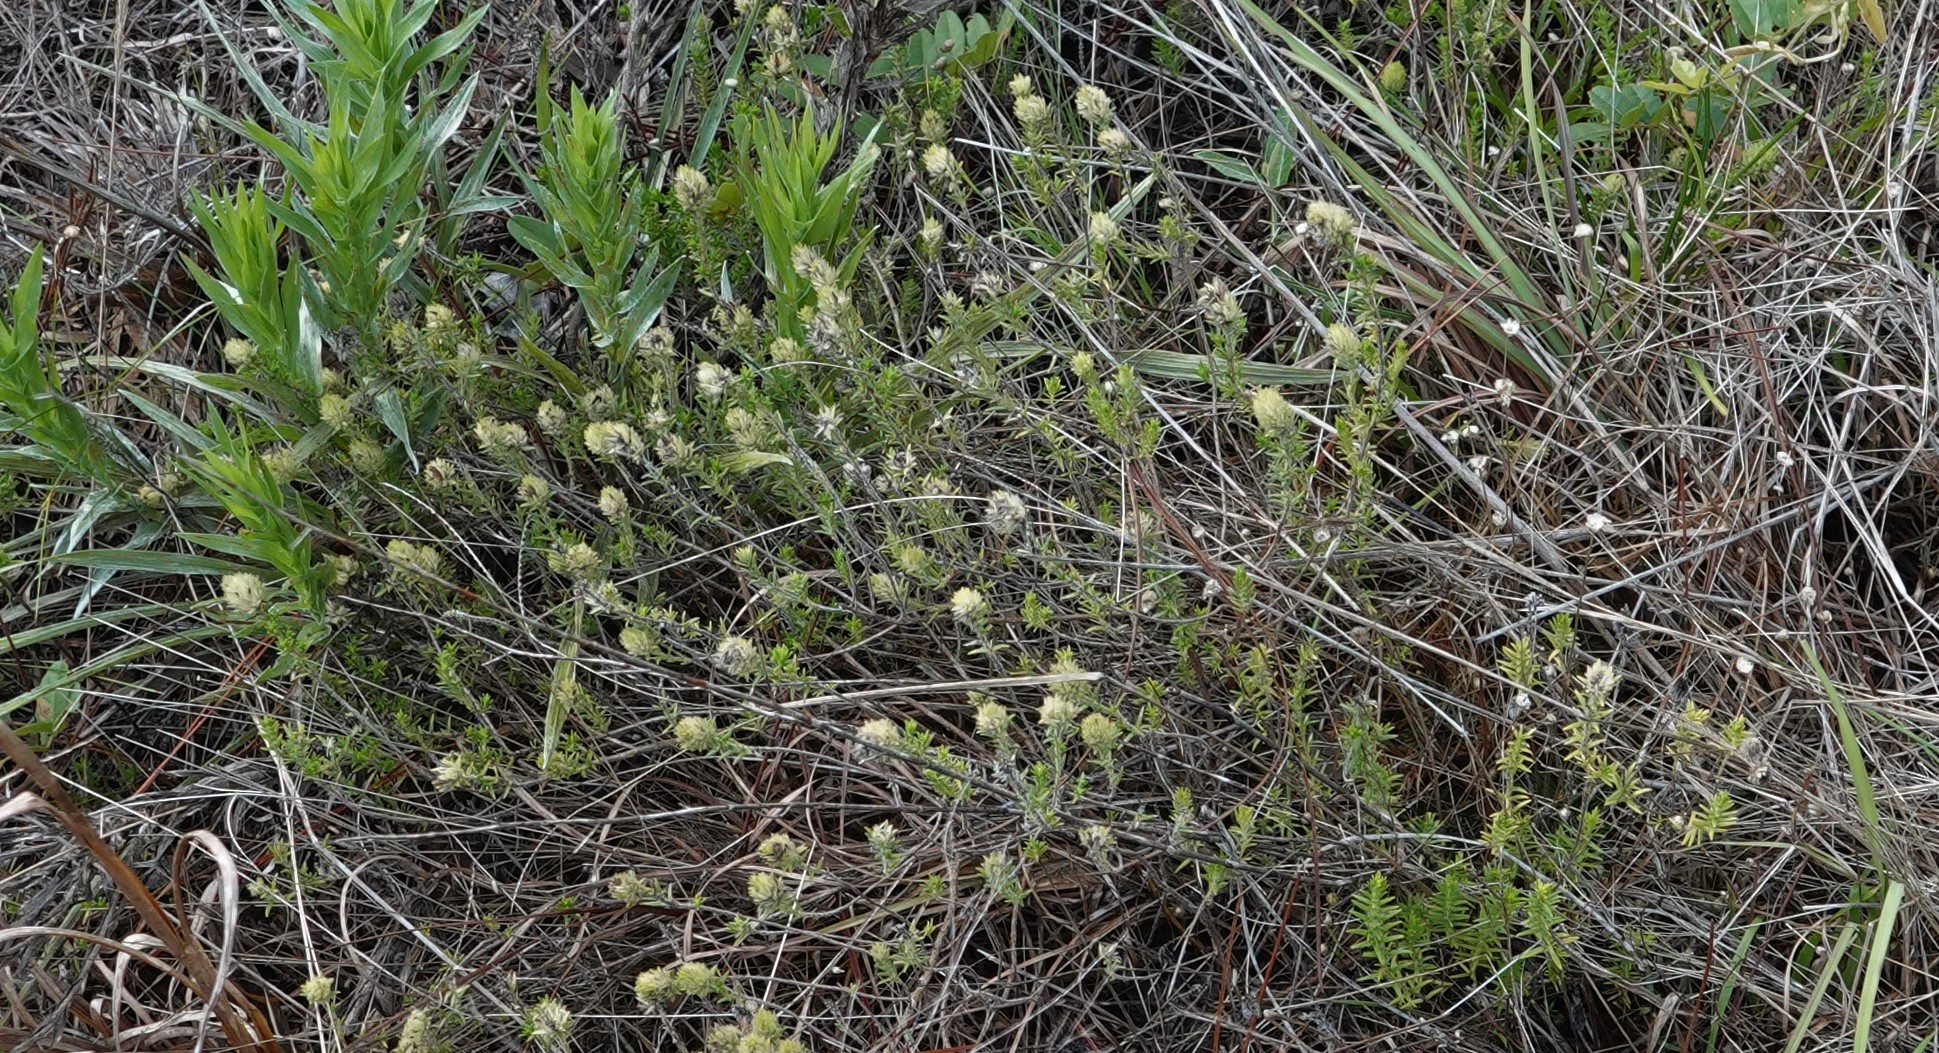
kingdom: Plantae
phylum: Tracheophyta
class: Magnoliopsida
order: Lamiales
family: Lamiaceae
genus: Piloblephis
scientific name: Piloblephis rigida
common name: Wild pennyroyal
